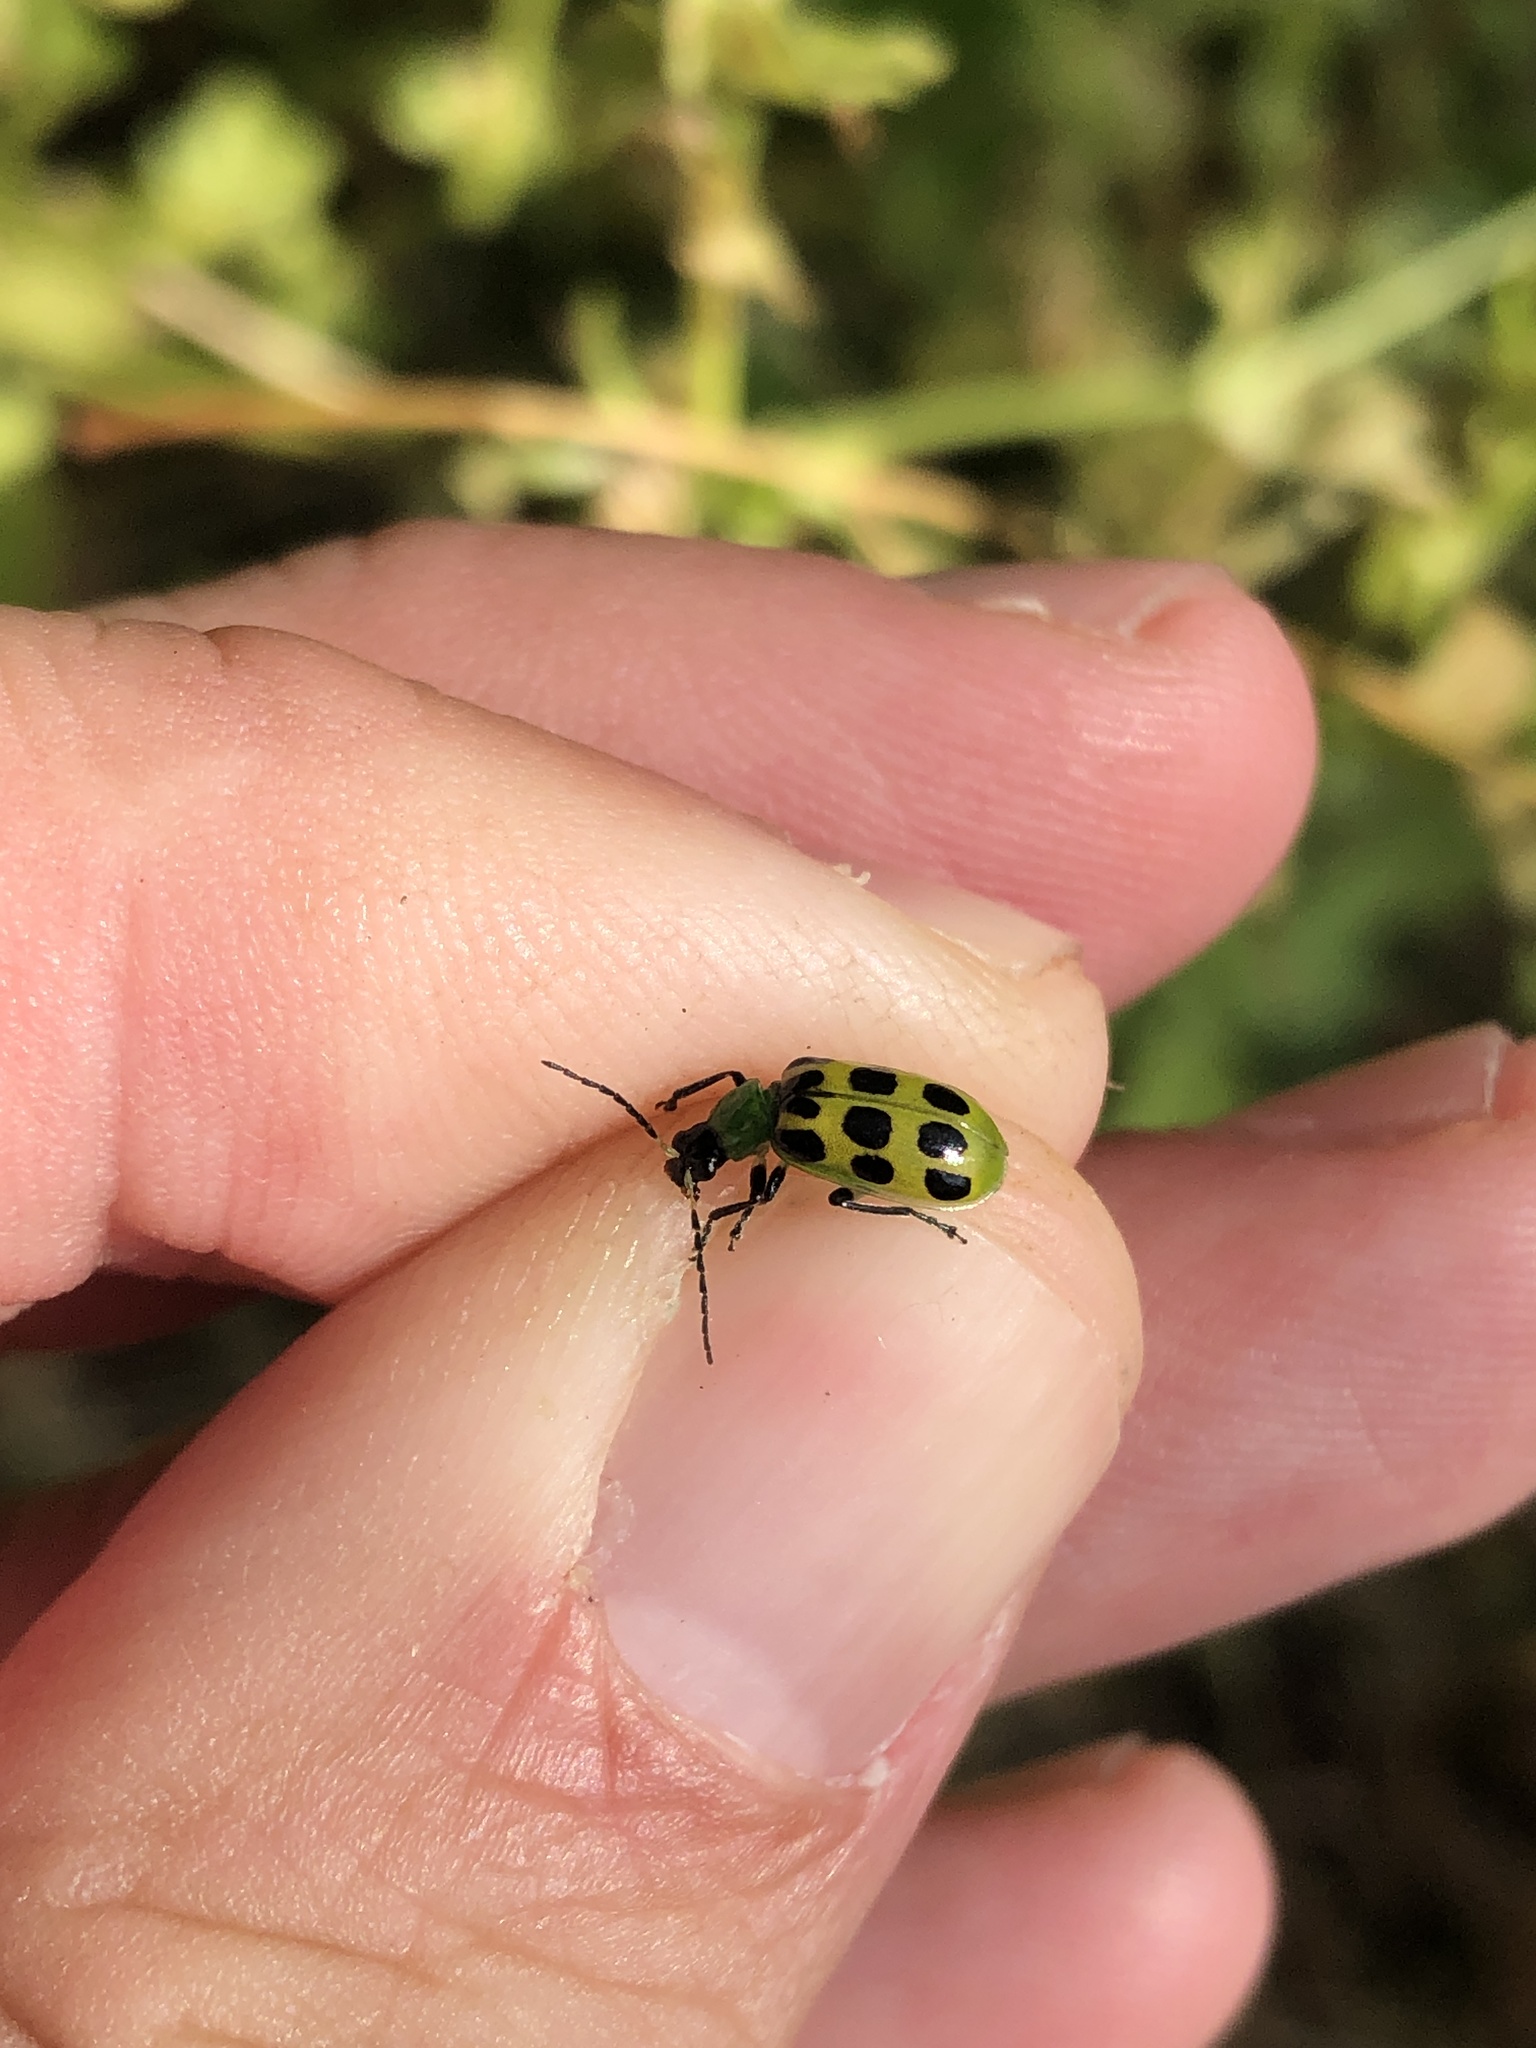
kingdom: Animalia
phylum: Arthropoda
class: Insecta
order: Coleoptera
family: Chrysomelidae
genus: Diabrotica
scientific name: Diabrotica undecimpunctata
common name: Spotted cucumber beetle
